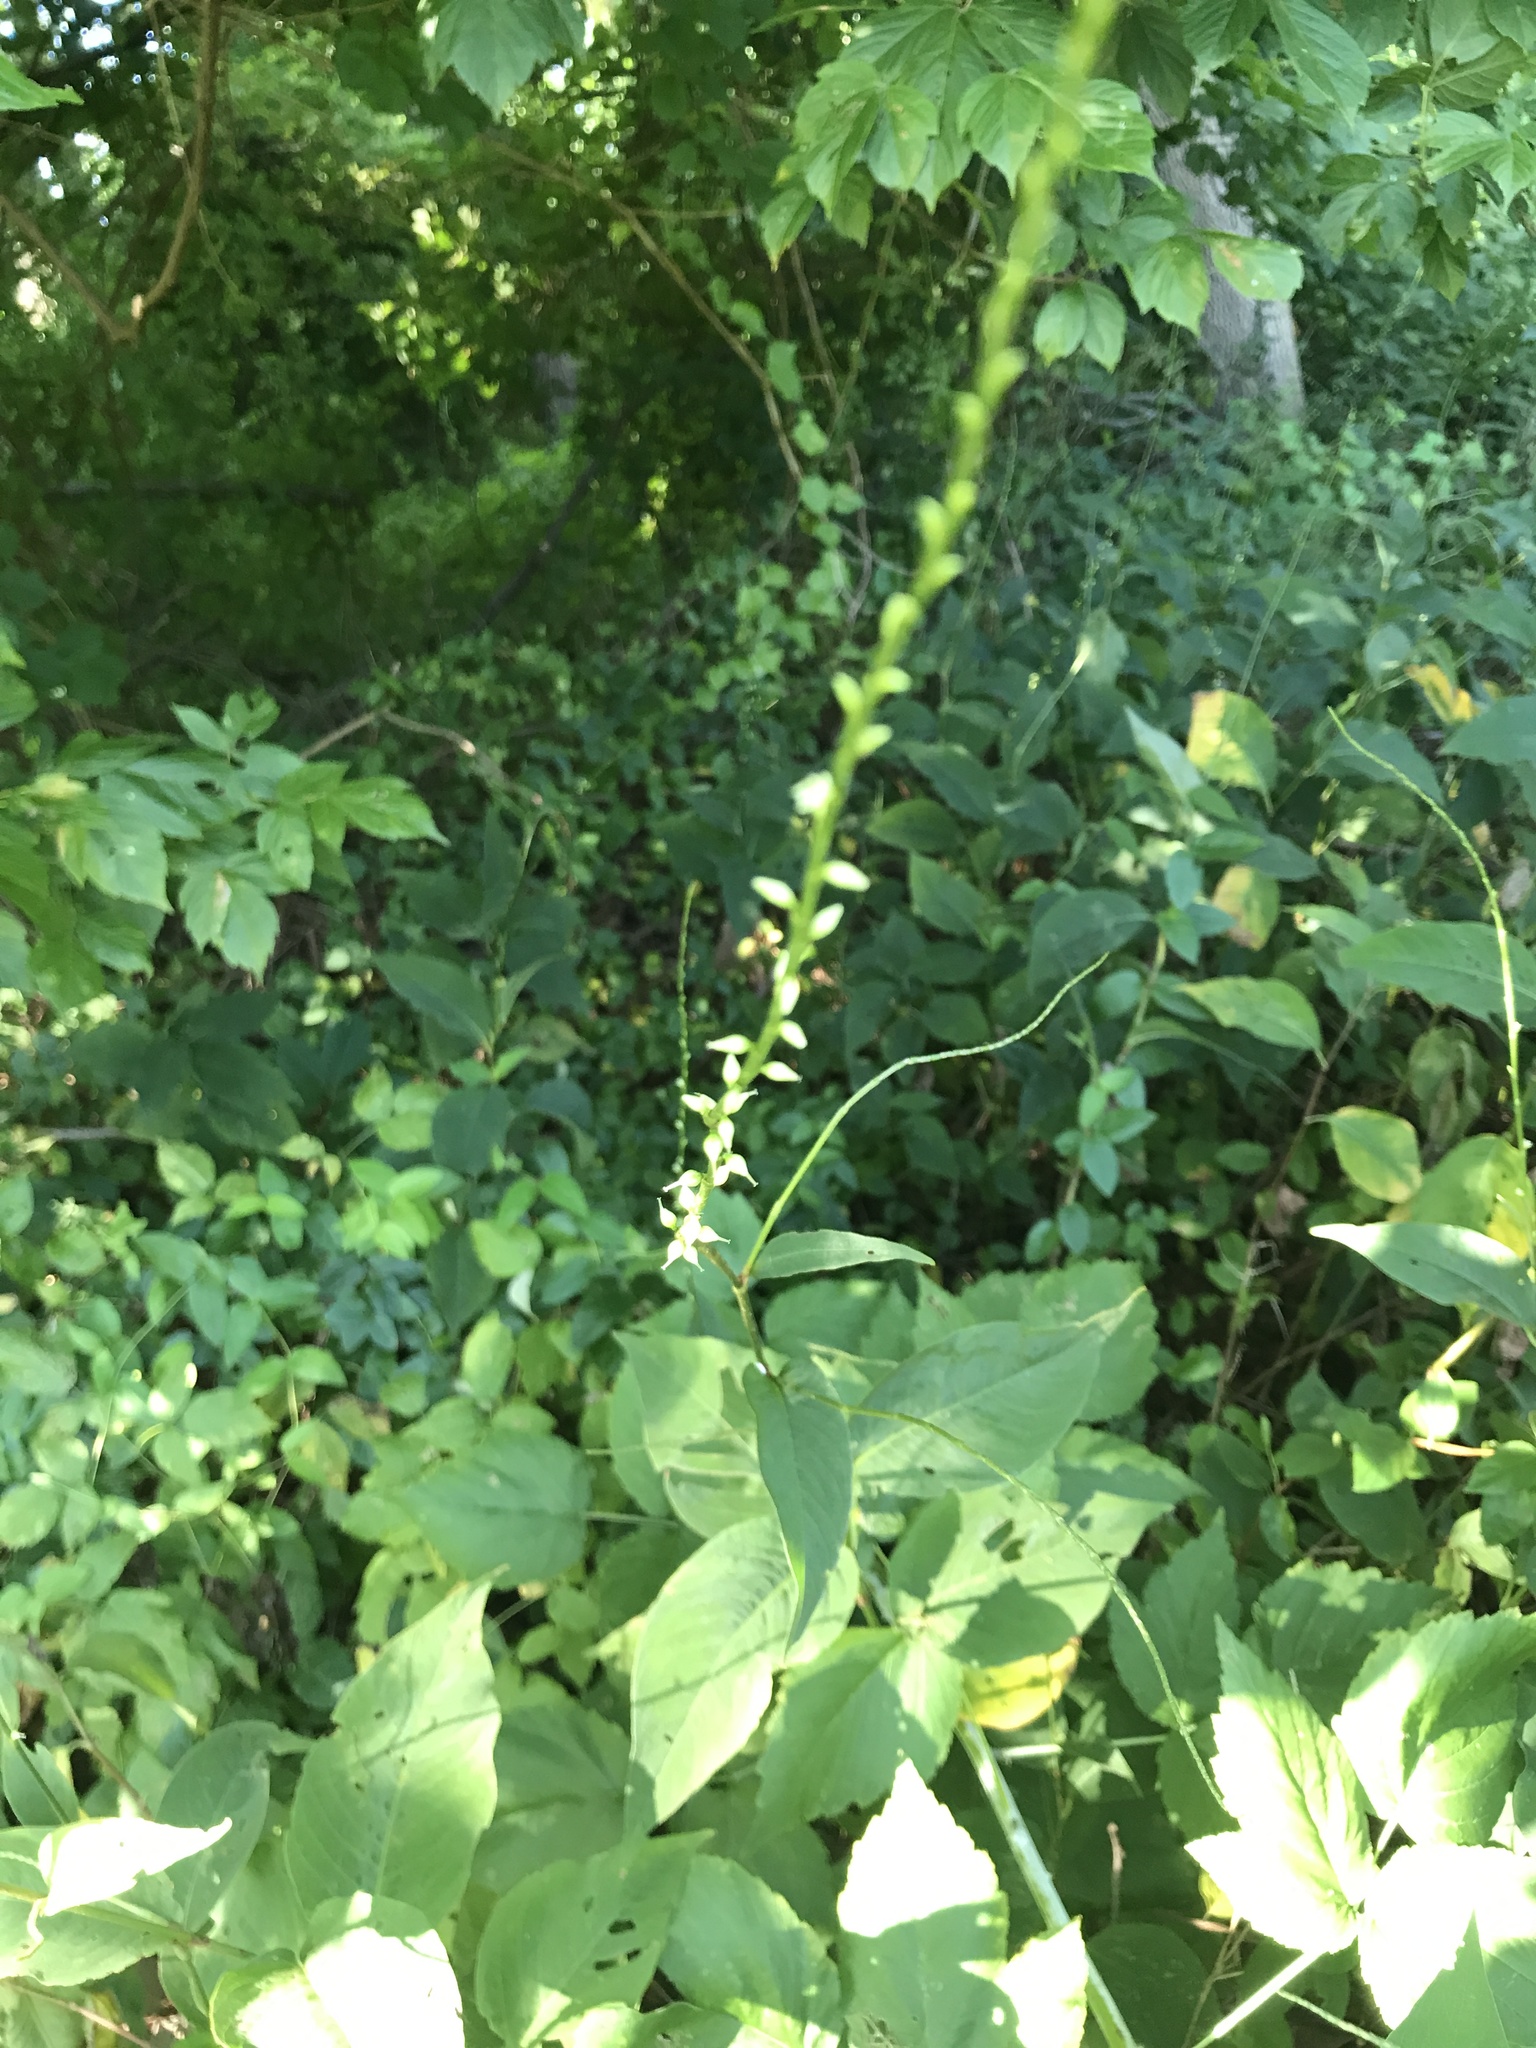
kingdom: Plantae
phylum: Tracheophyta
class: Magnoliopsida
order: Caryophyllales
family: Polygonaceae
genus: Persicaria
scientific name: Persicaria virginiana
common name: Jumpseed
